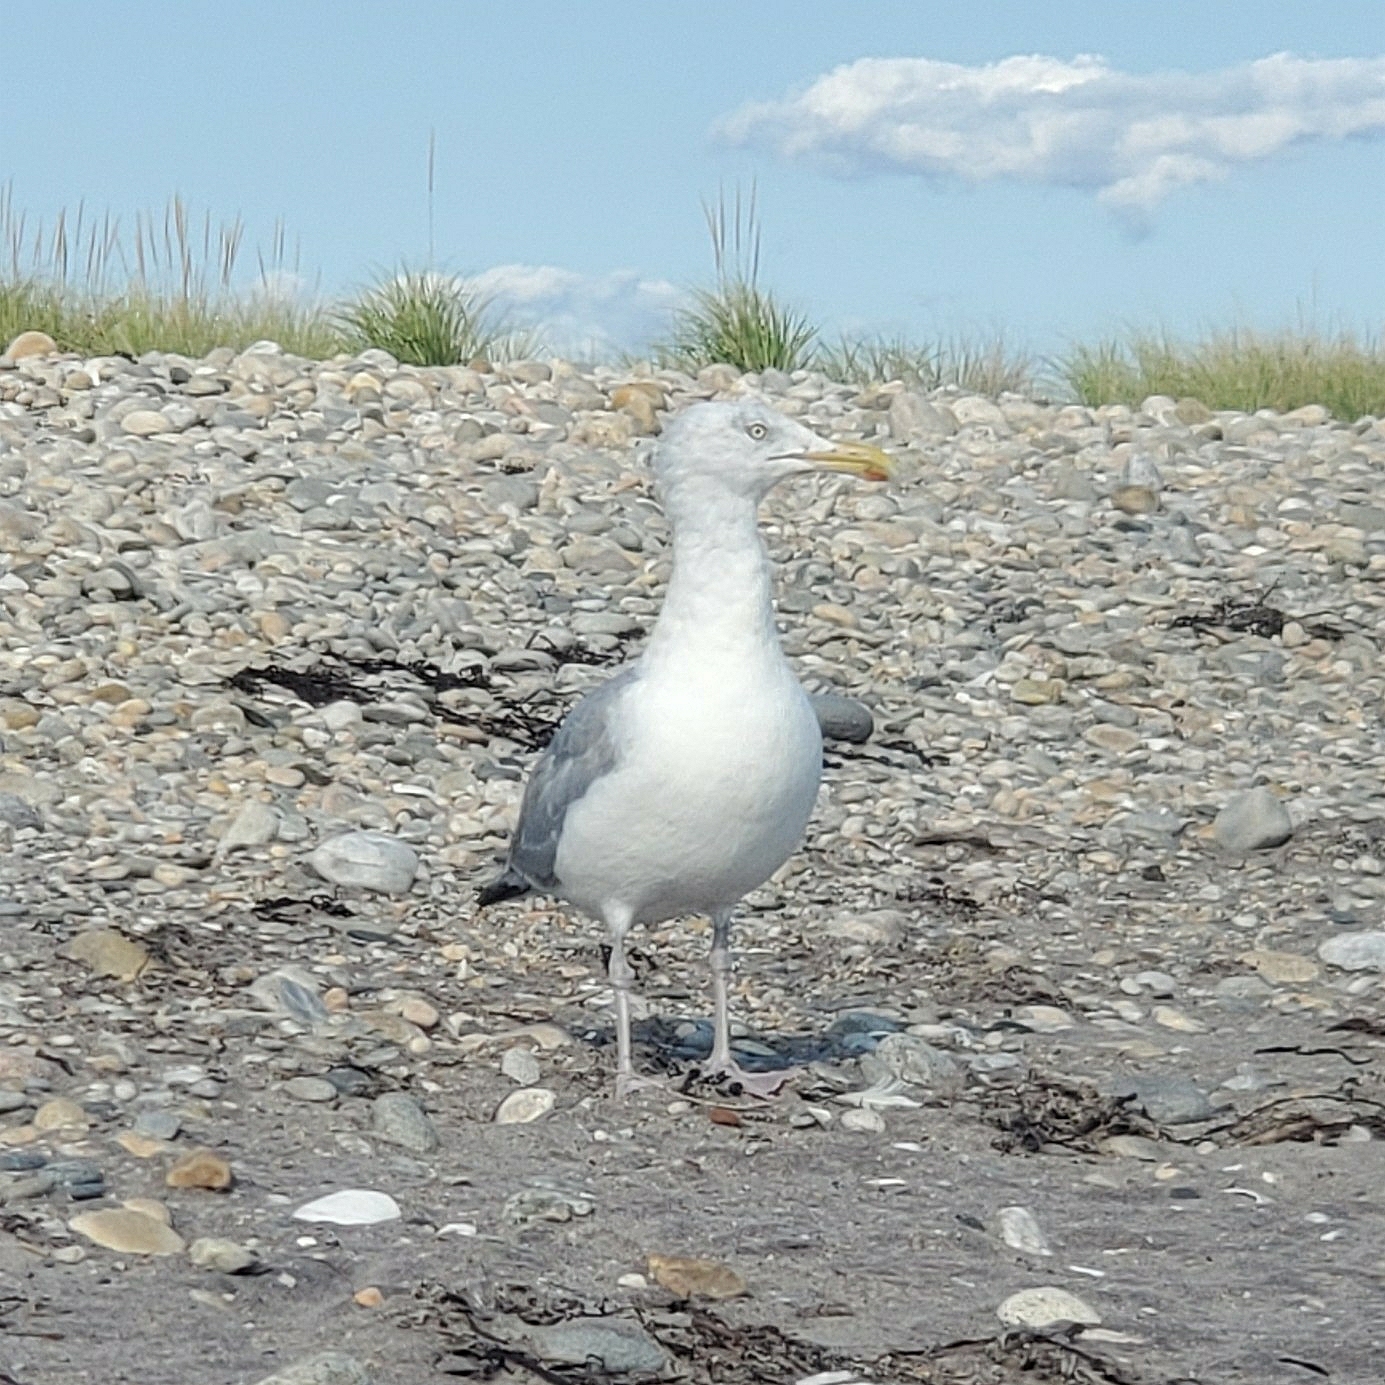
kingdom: Animalia
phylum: Chordata
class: Aves
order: Charadriiformes
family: Laridae
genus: Larus
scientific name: Larus argentatus
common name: Herring gull
